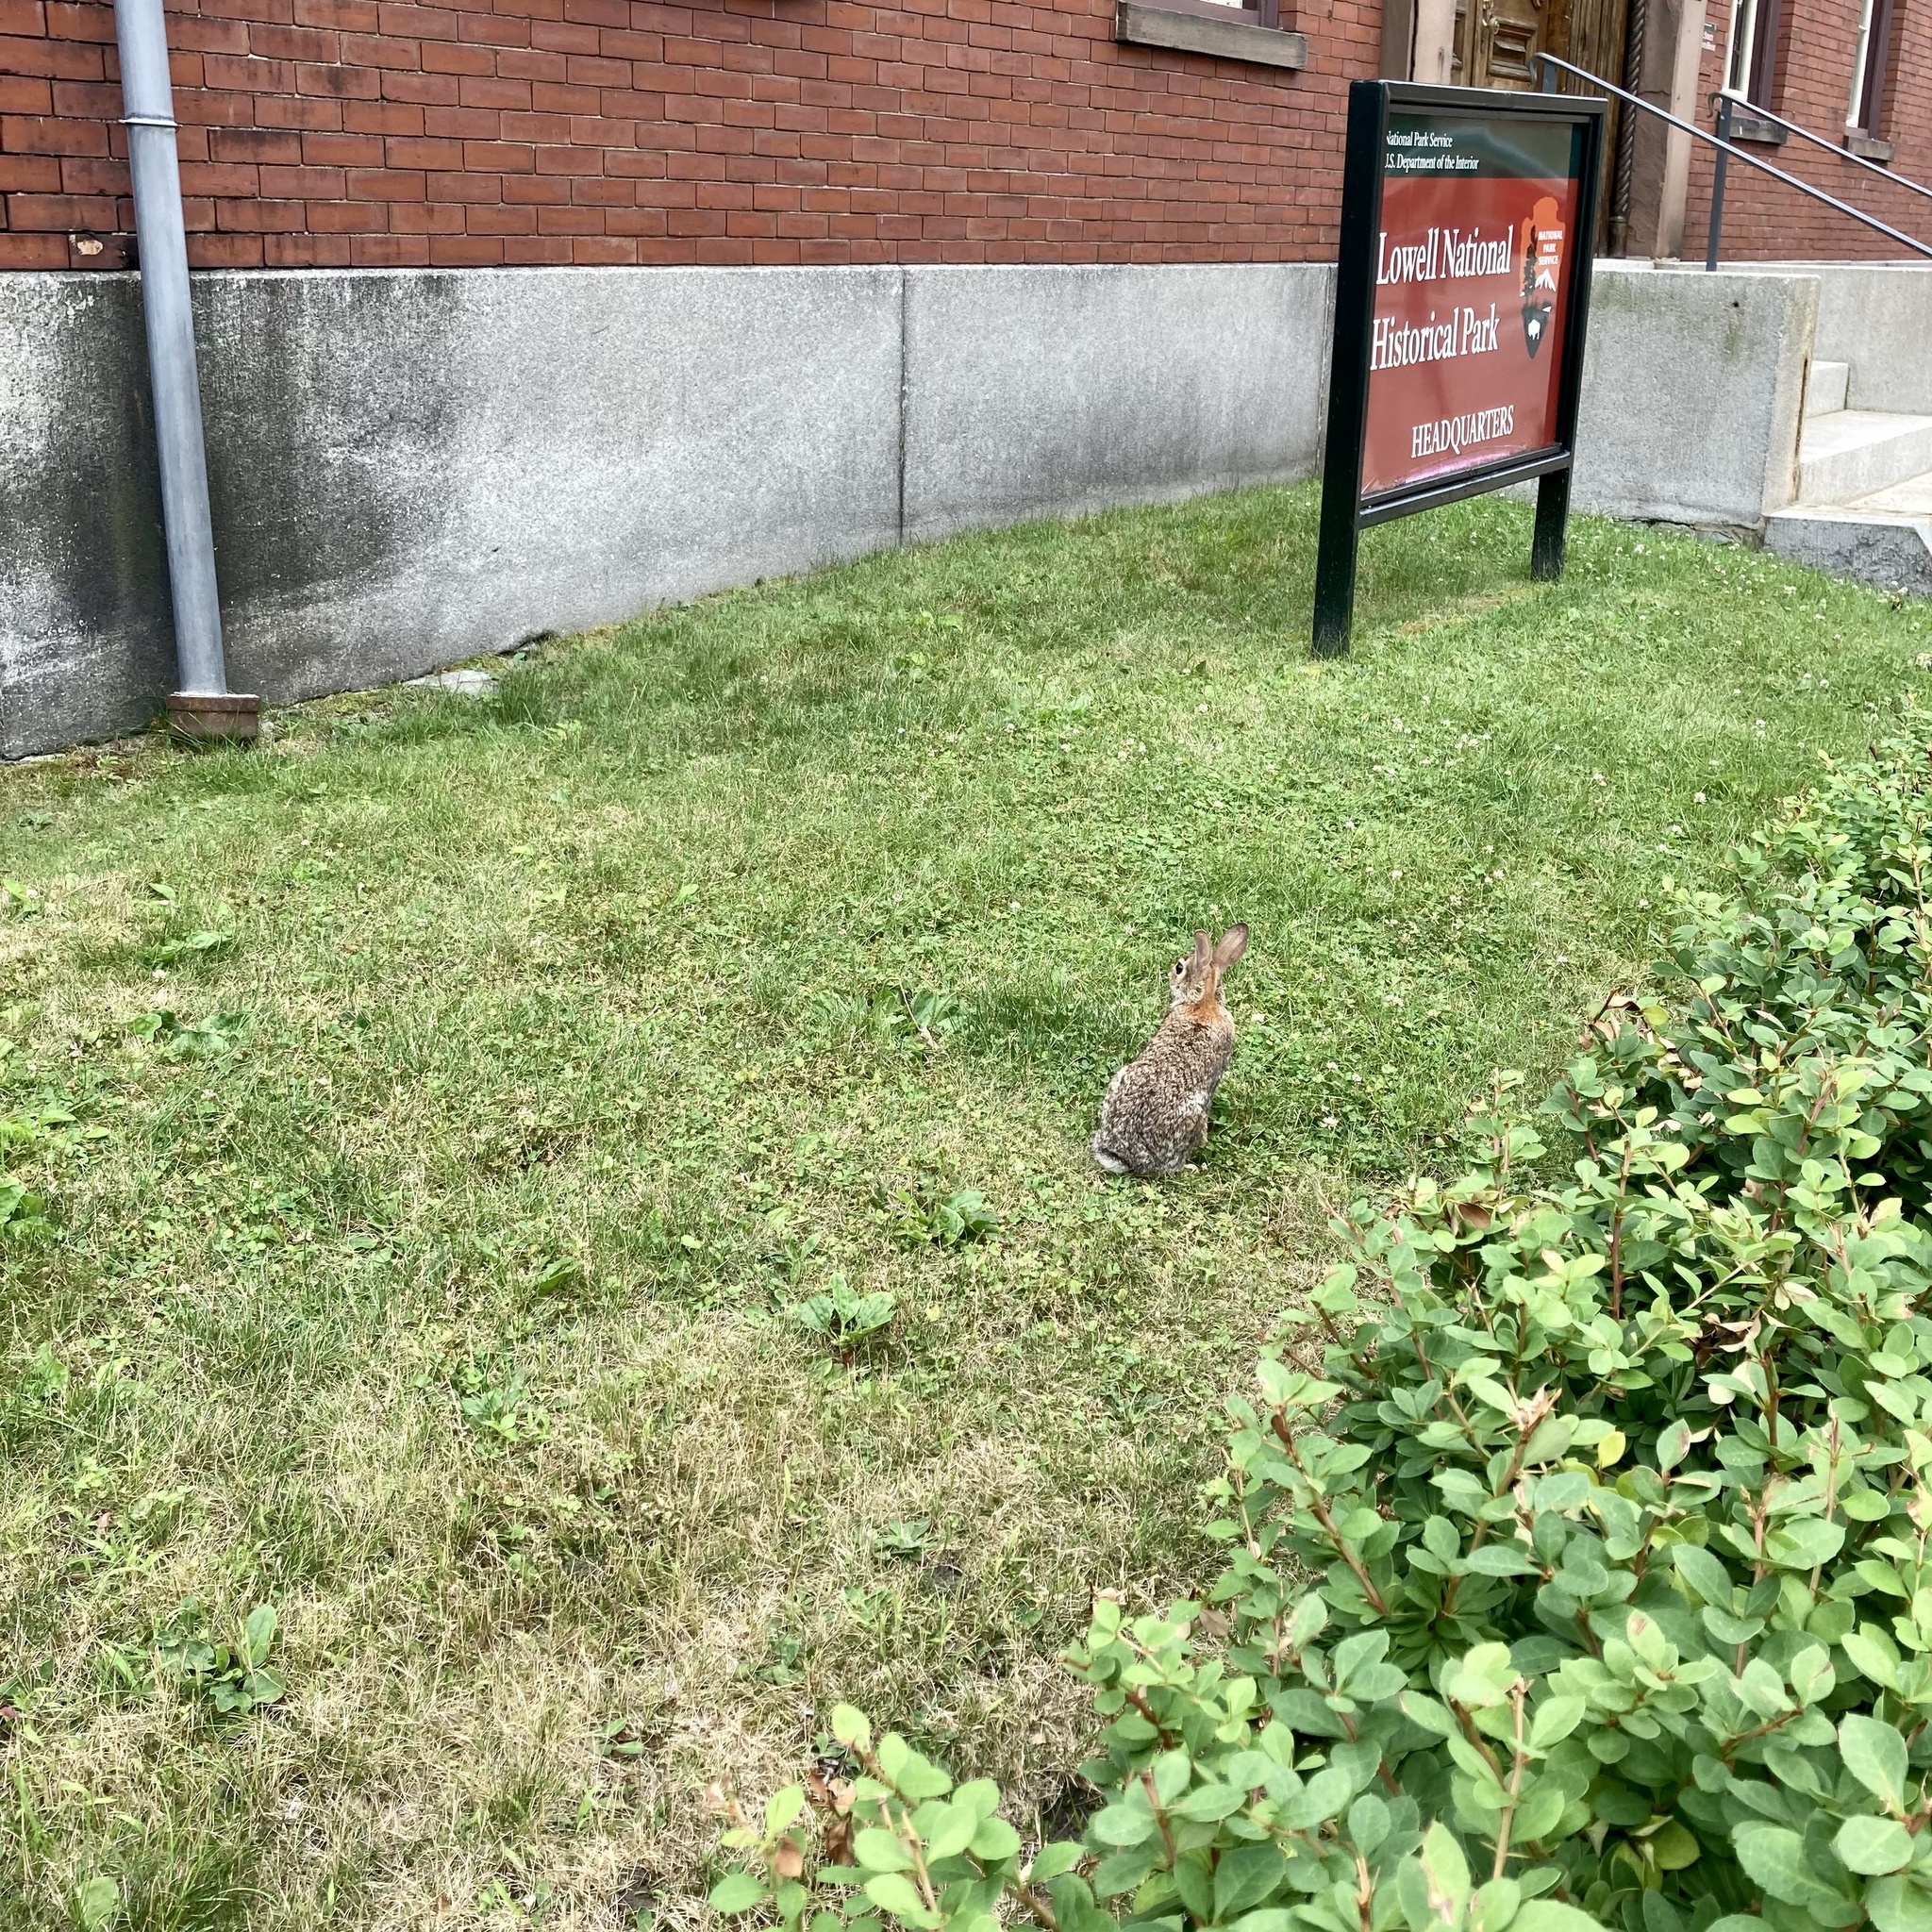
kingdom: Animalia
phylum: Chordata
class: Mammalia
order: Lagomorpha
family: Leporidae
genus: Sylvilagus
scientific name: Sylvilagus floridanus
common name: Eastern cottontail
